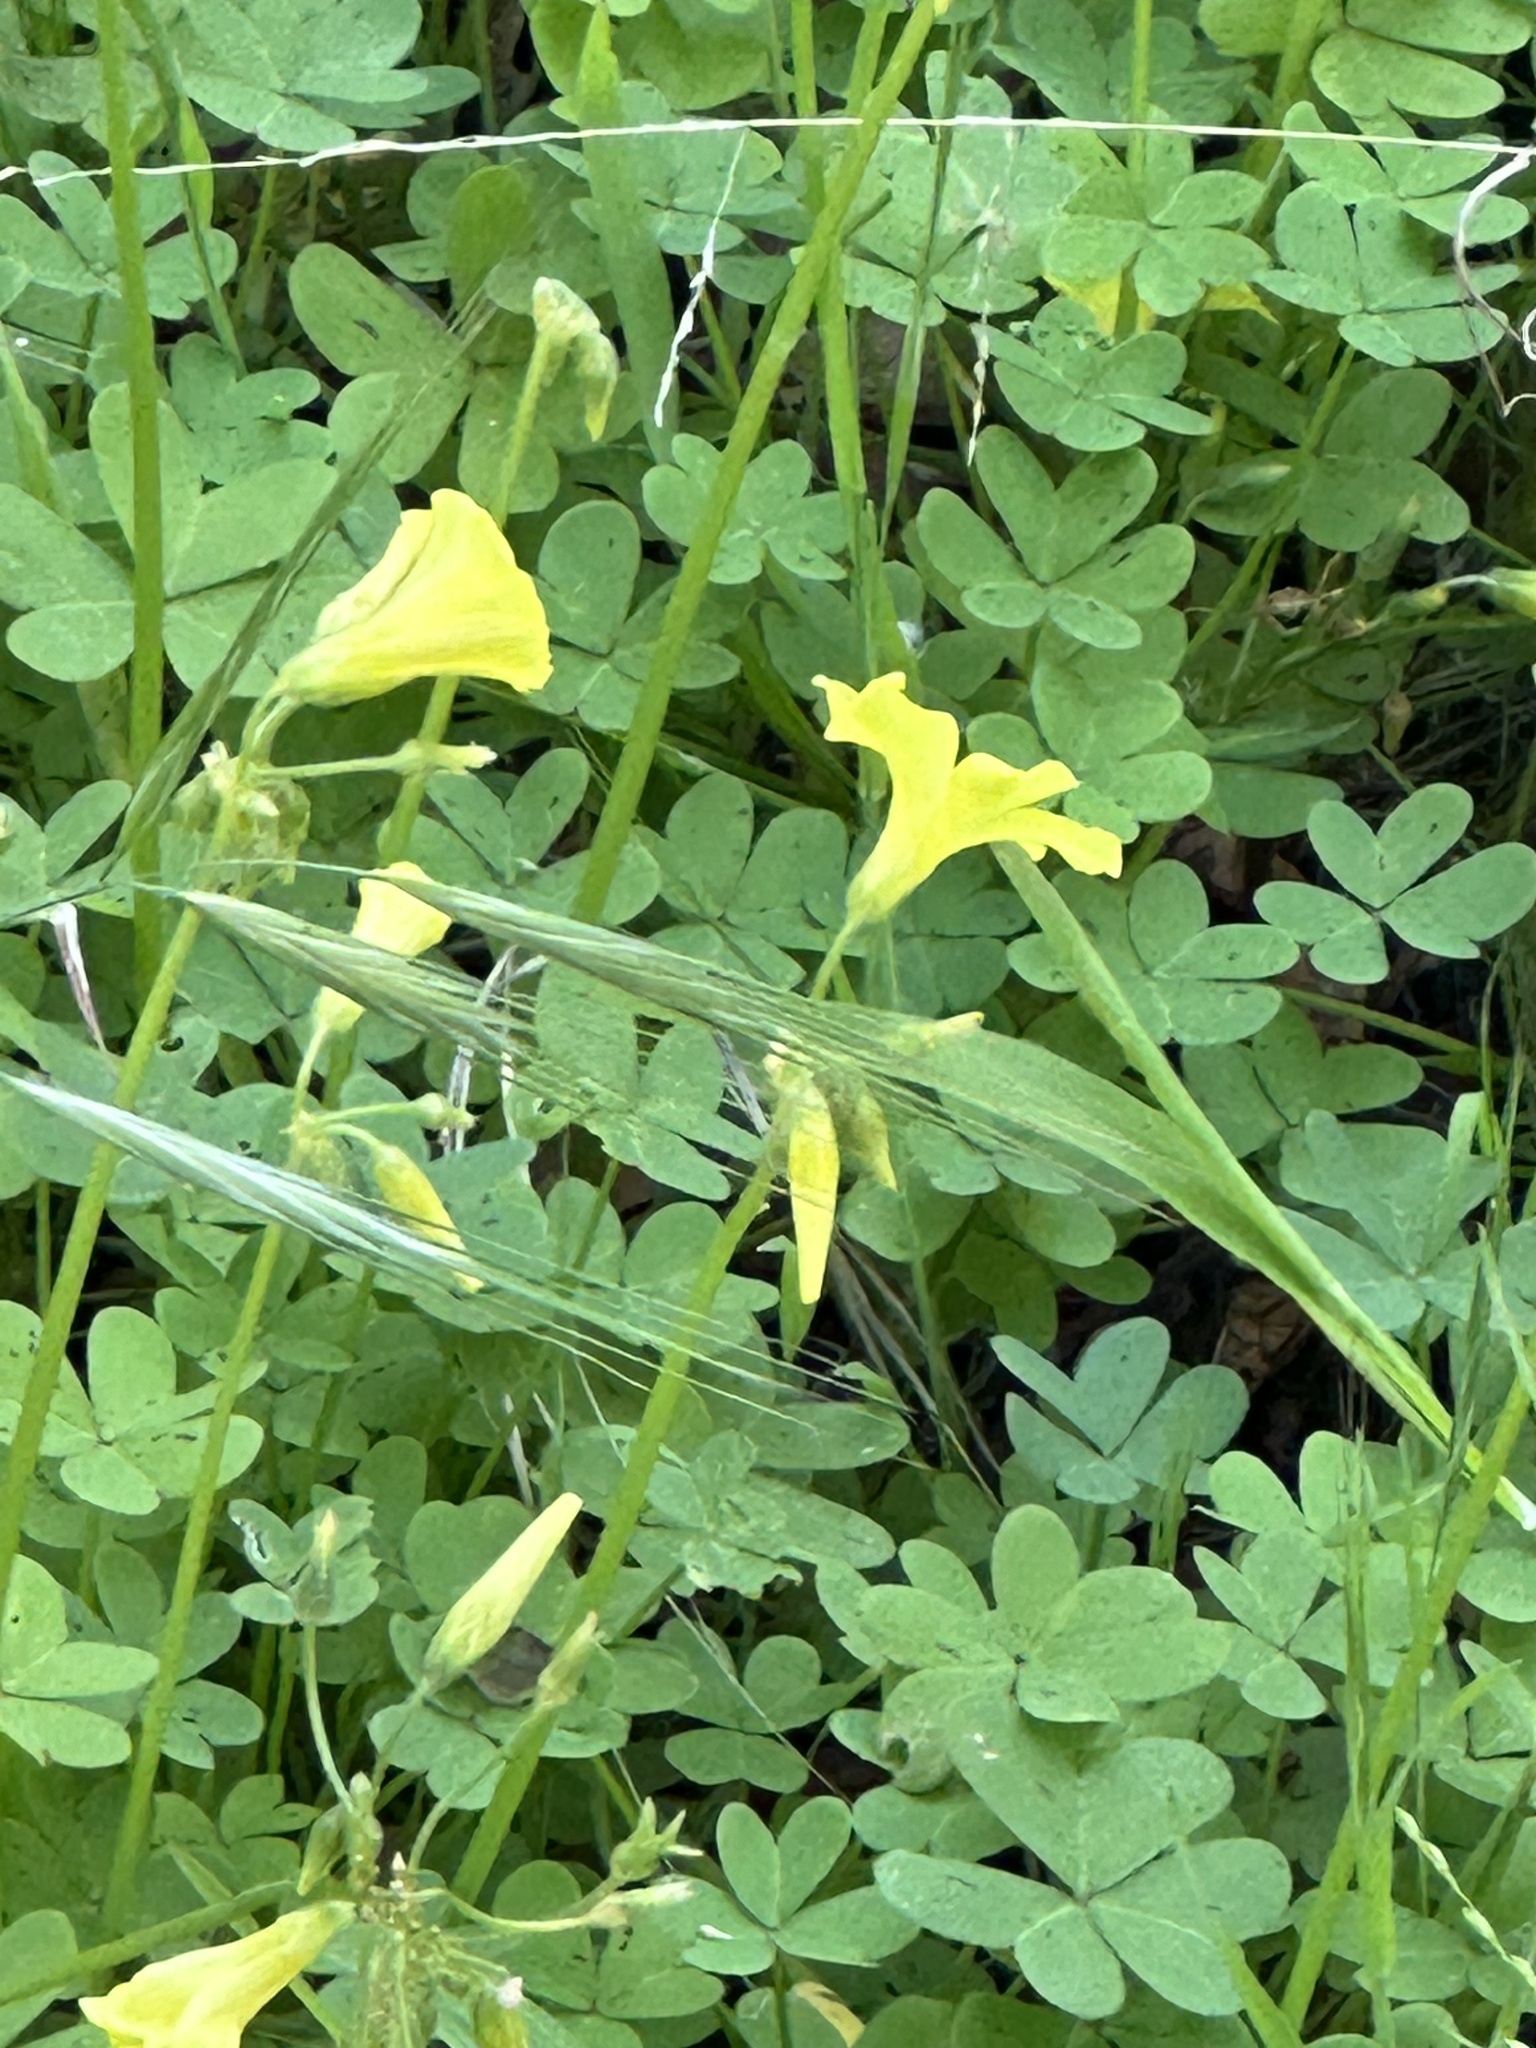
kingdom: Plantae
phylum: Tracheophyta
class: Magnoliopsida
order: Oxalidales
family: Oxalidaceae
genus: Oxalis
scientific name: Oxalis pes-caprae
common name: Bermuda-buttercup
